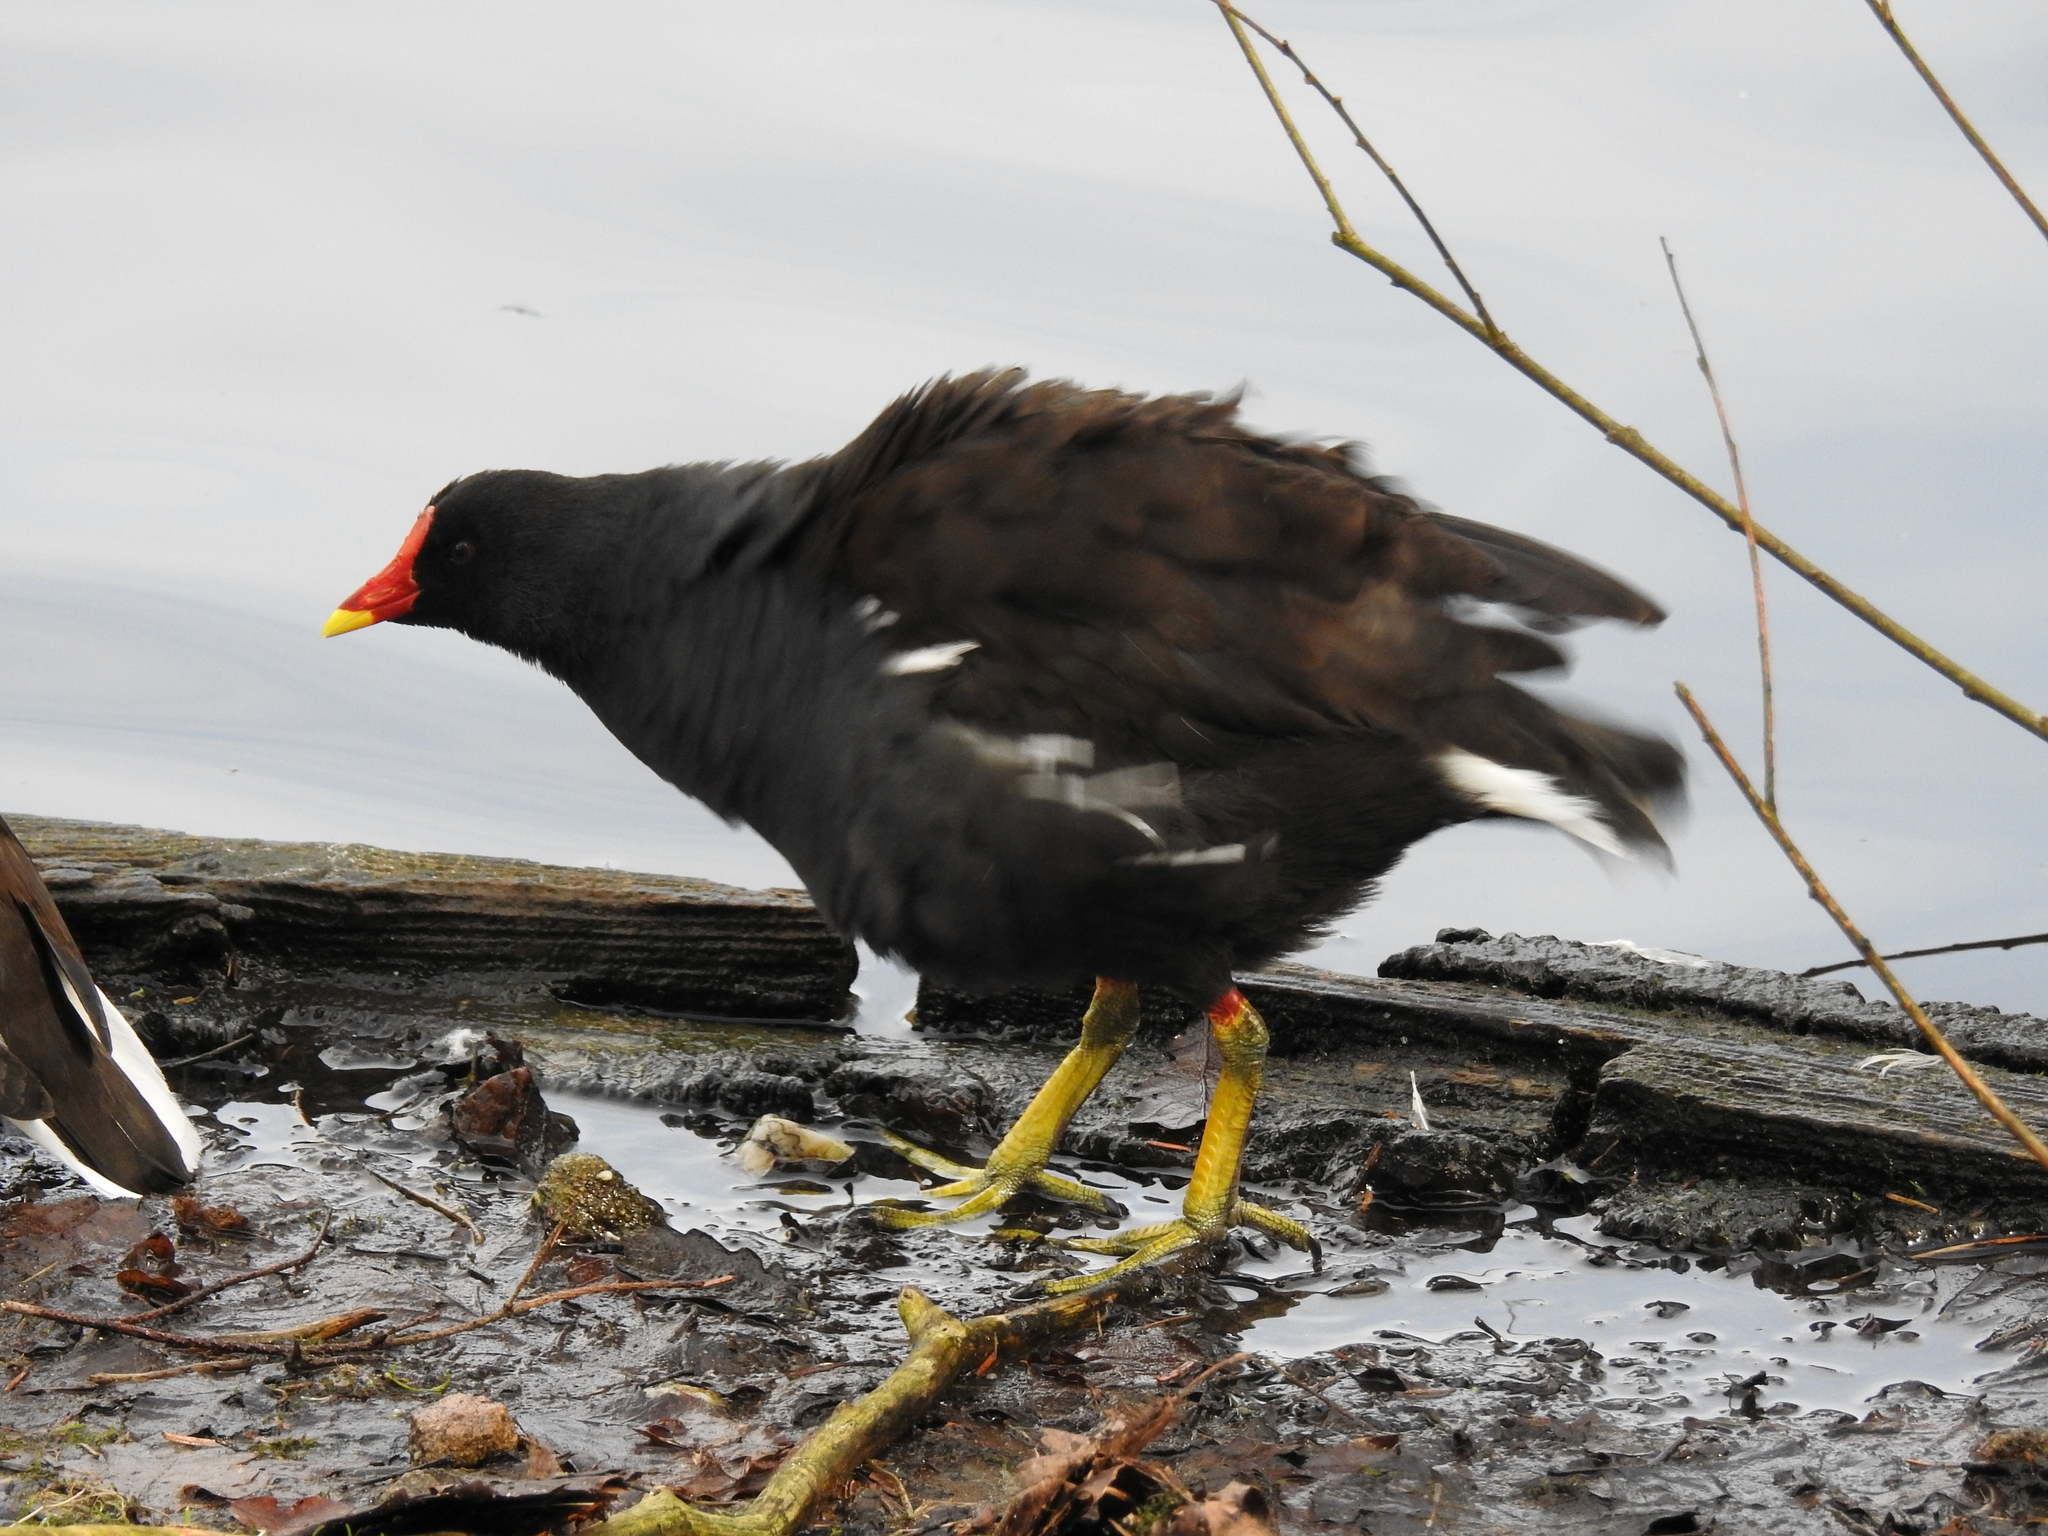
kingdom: Animalia
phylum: Chordata
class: Aves
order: Gruiformes
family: Rallidae
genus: Gallinula
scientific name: Gallinula chloropus
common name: Common moorhen
